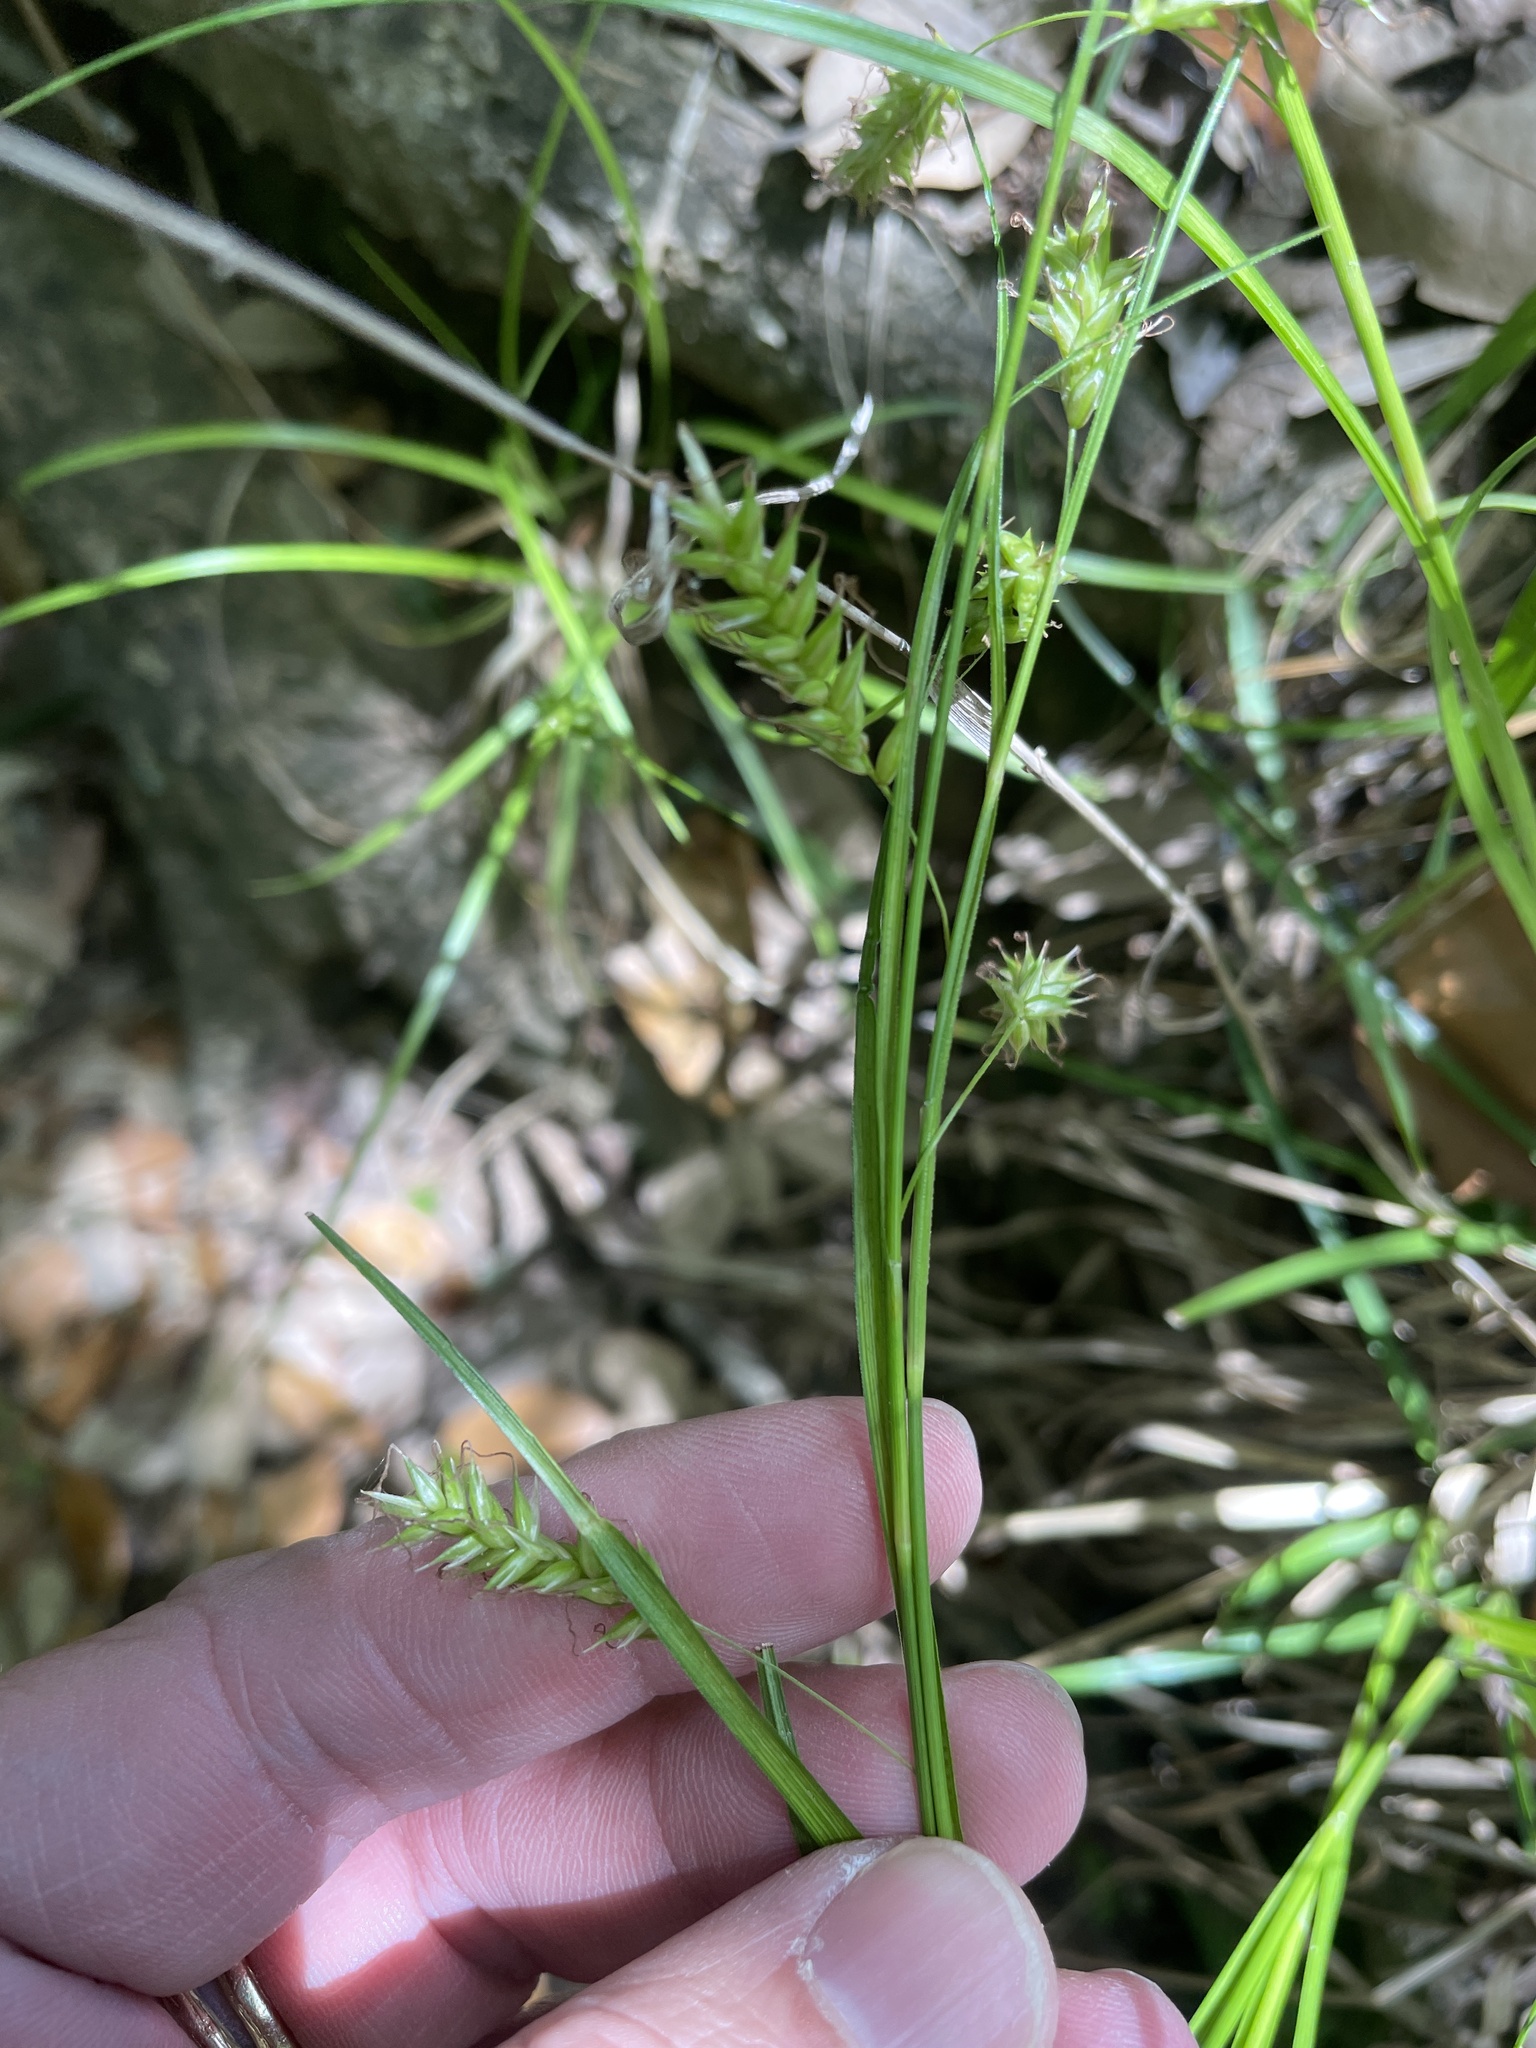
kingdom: Plantae
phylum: Tracheophyta
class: Liliopsida
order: Poales
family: Cyperaceae
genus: Carex
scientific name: Carex cherokeensis
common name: Cherokee sedge
